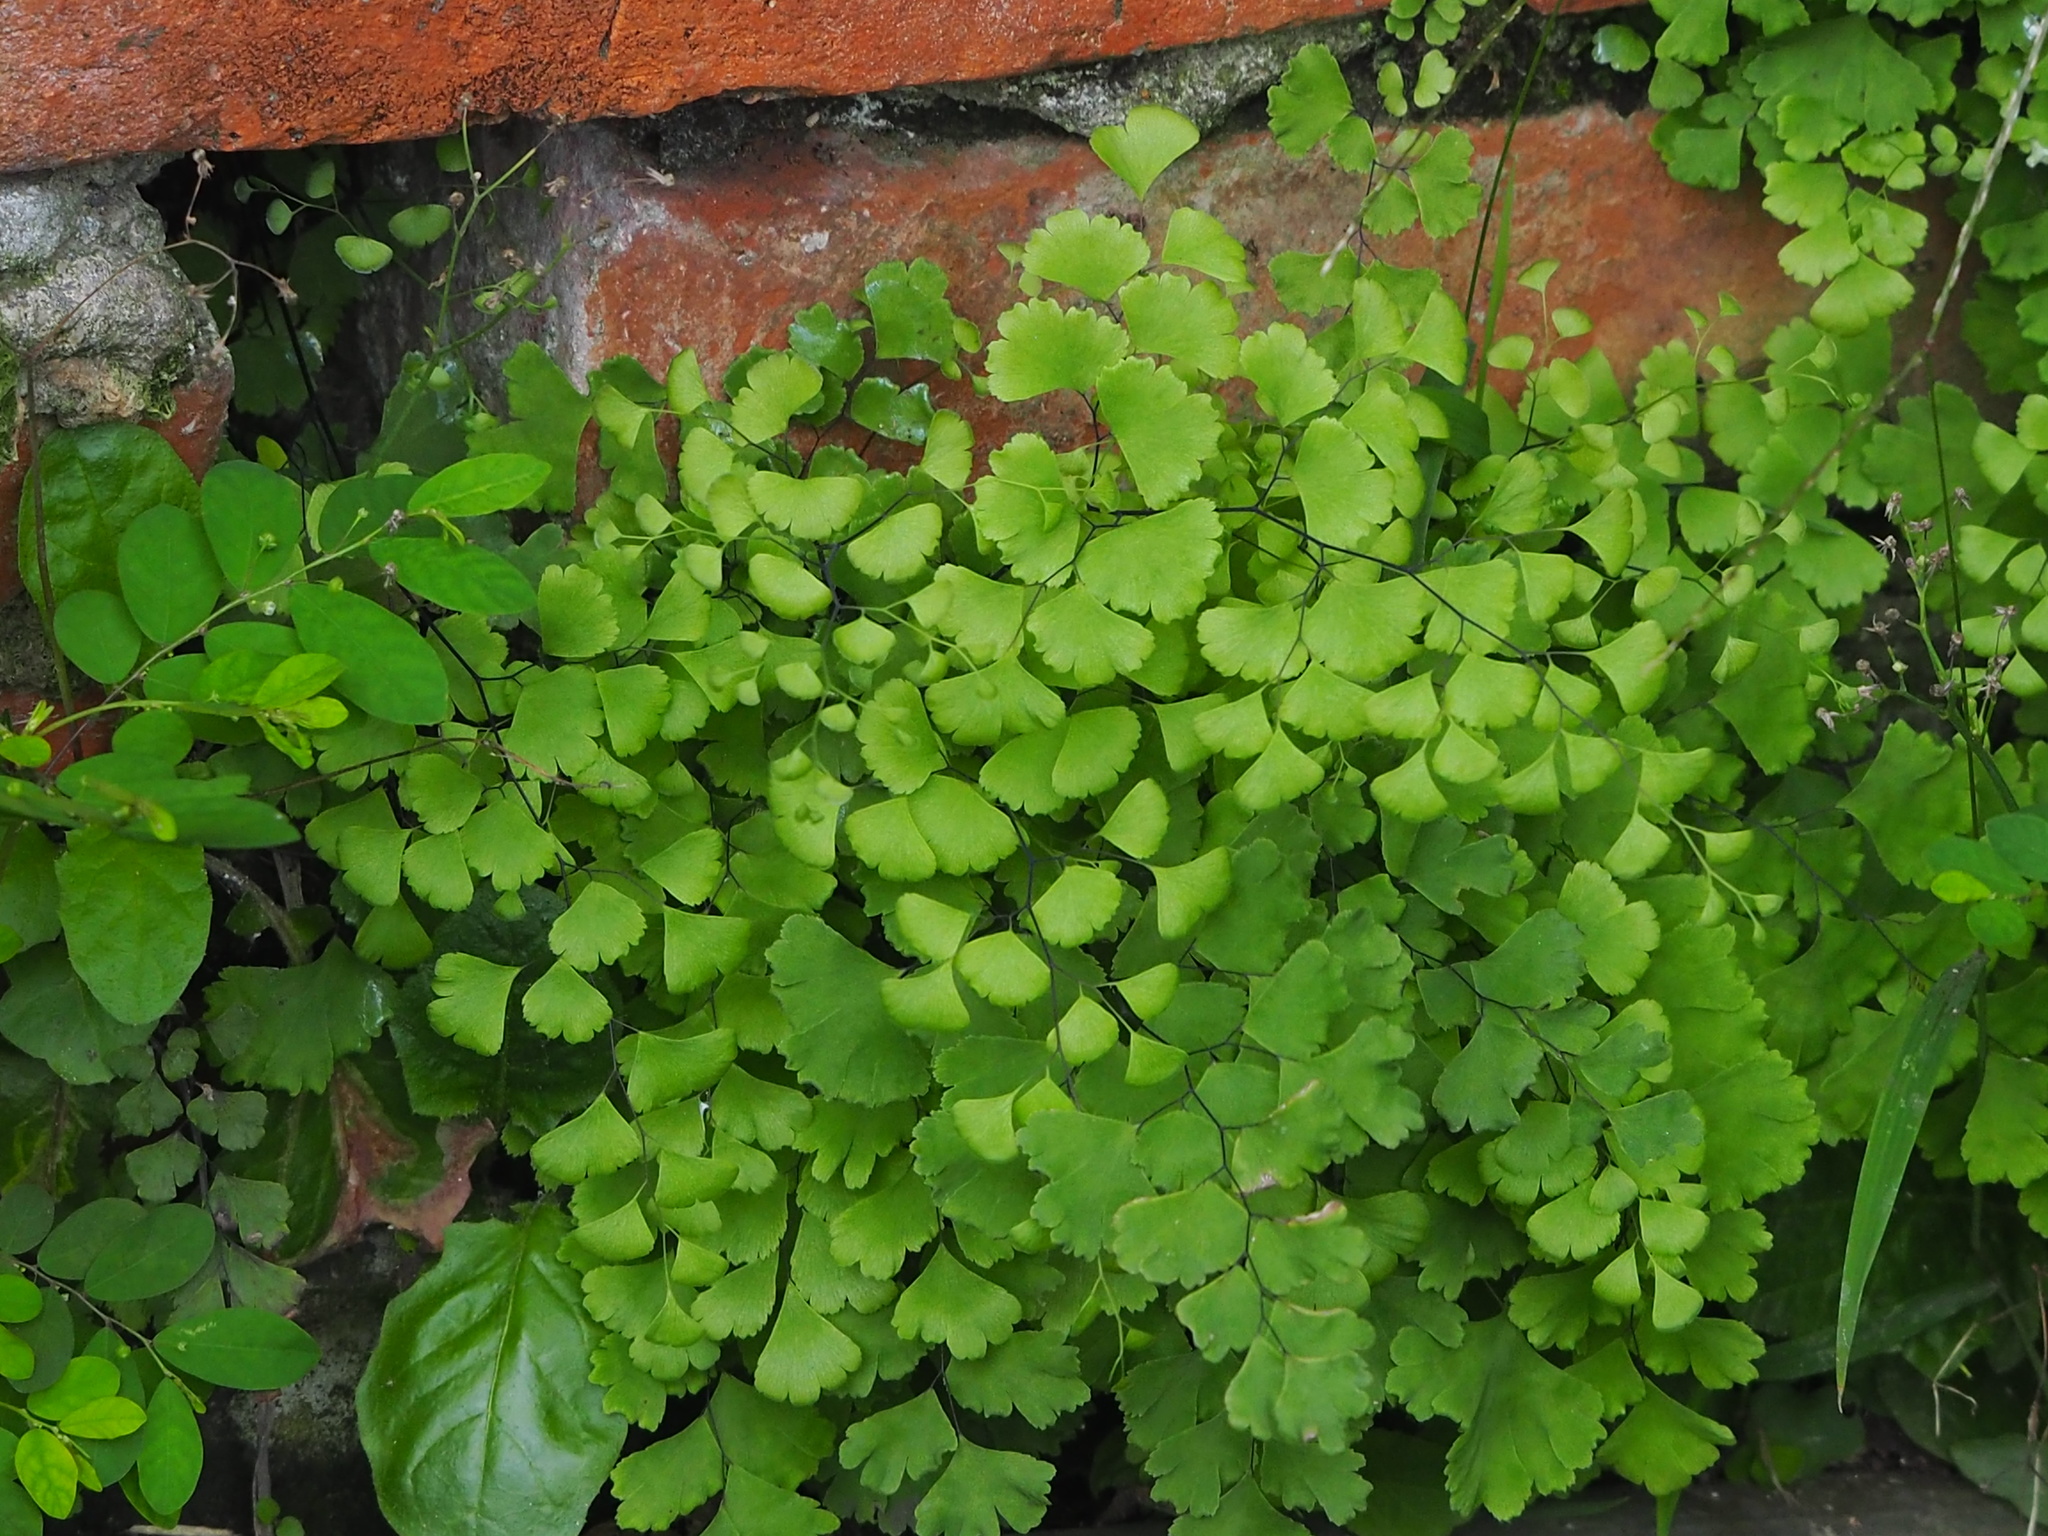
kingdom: Plantae
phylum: Tracheophyta
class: Polypodiopsida
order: Polypodiales
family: Pteridaceae
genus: Adiantum
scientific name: Adiantum capillus-veneris
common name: Maidenhair fern
